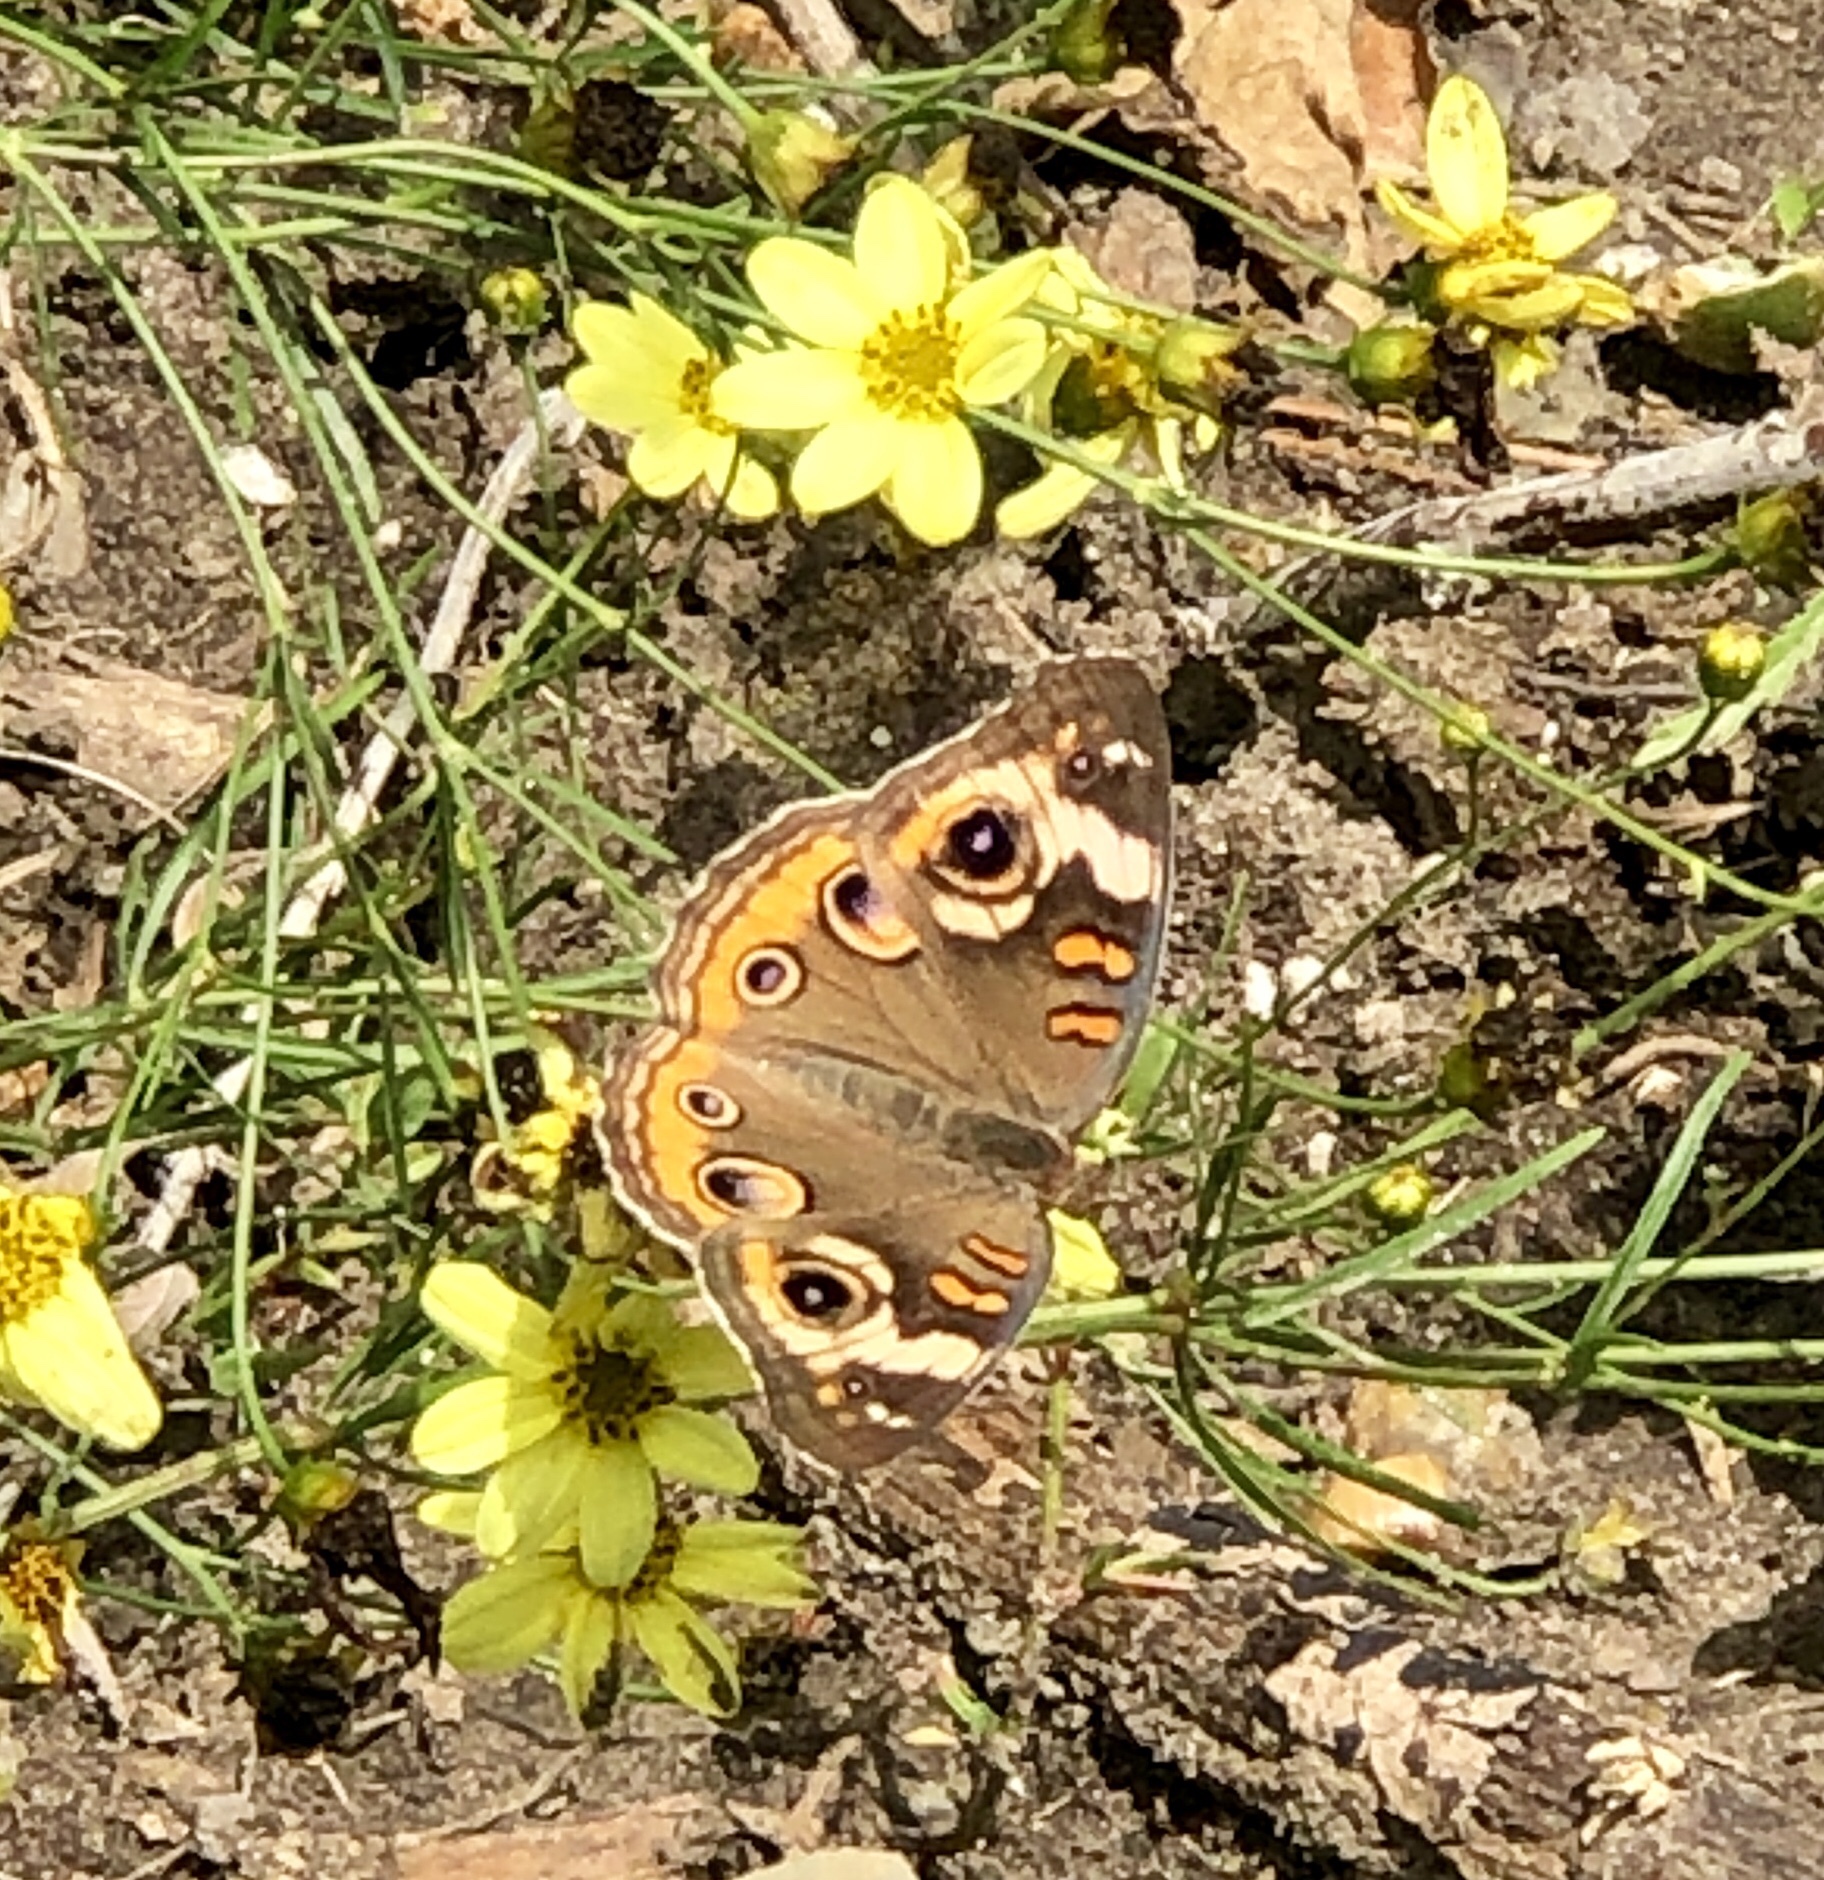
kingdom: Animalia
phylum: Arthropoda
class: Insecta
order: Lepidoptera
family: Nymphalidae
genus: Junonia
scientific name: Junonia coenia
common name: Common buckeye
